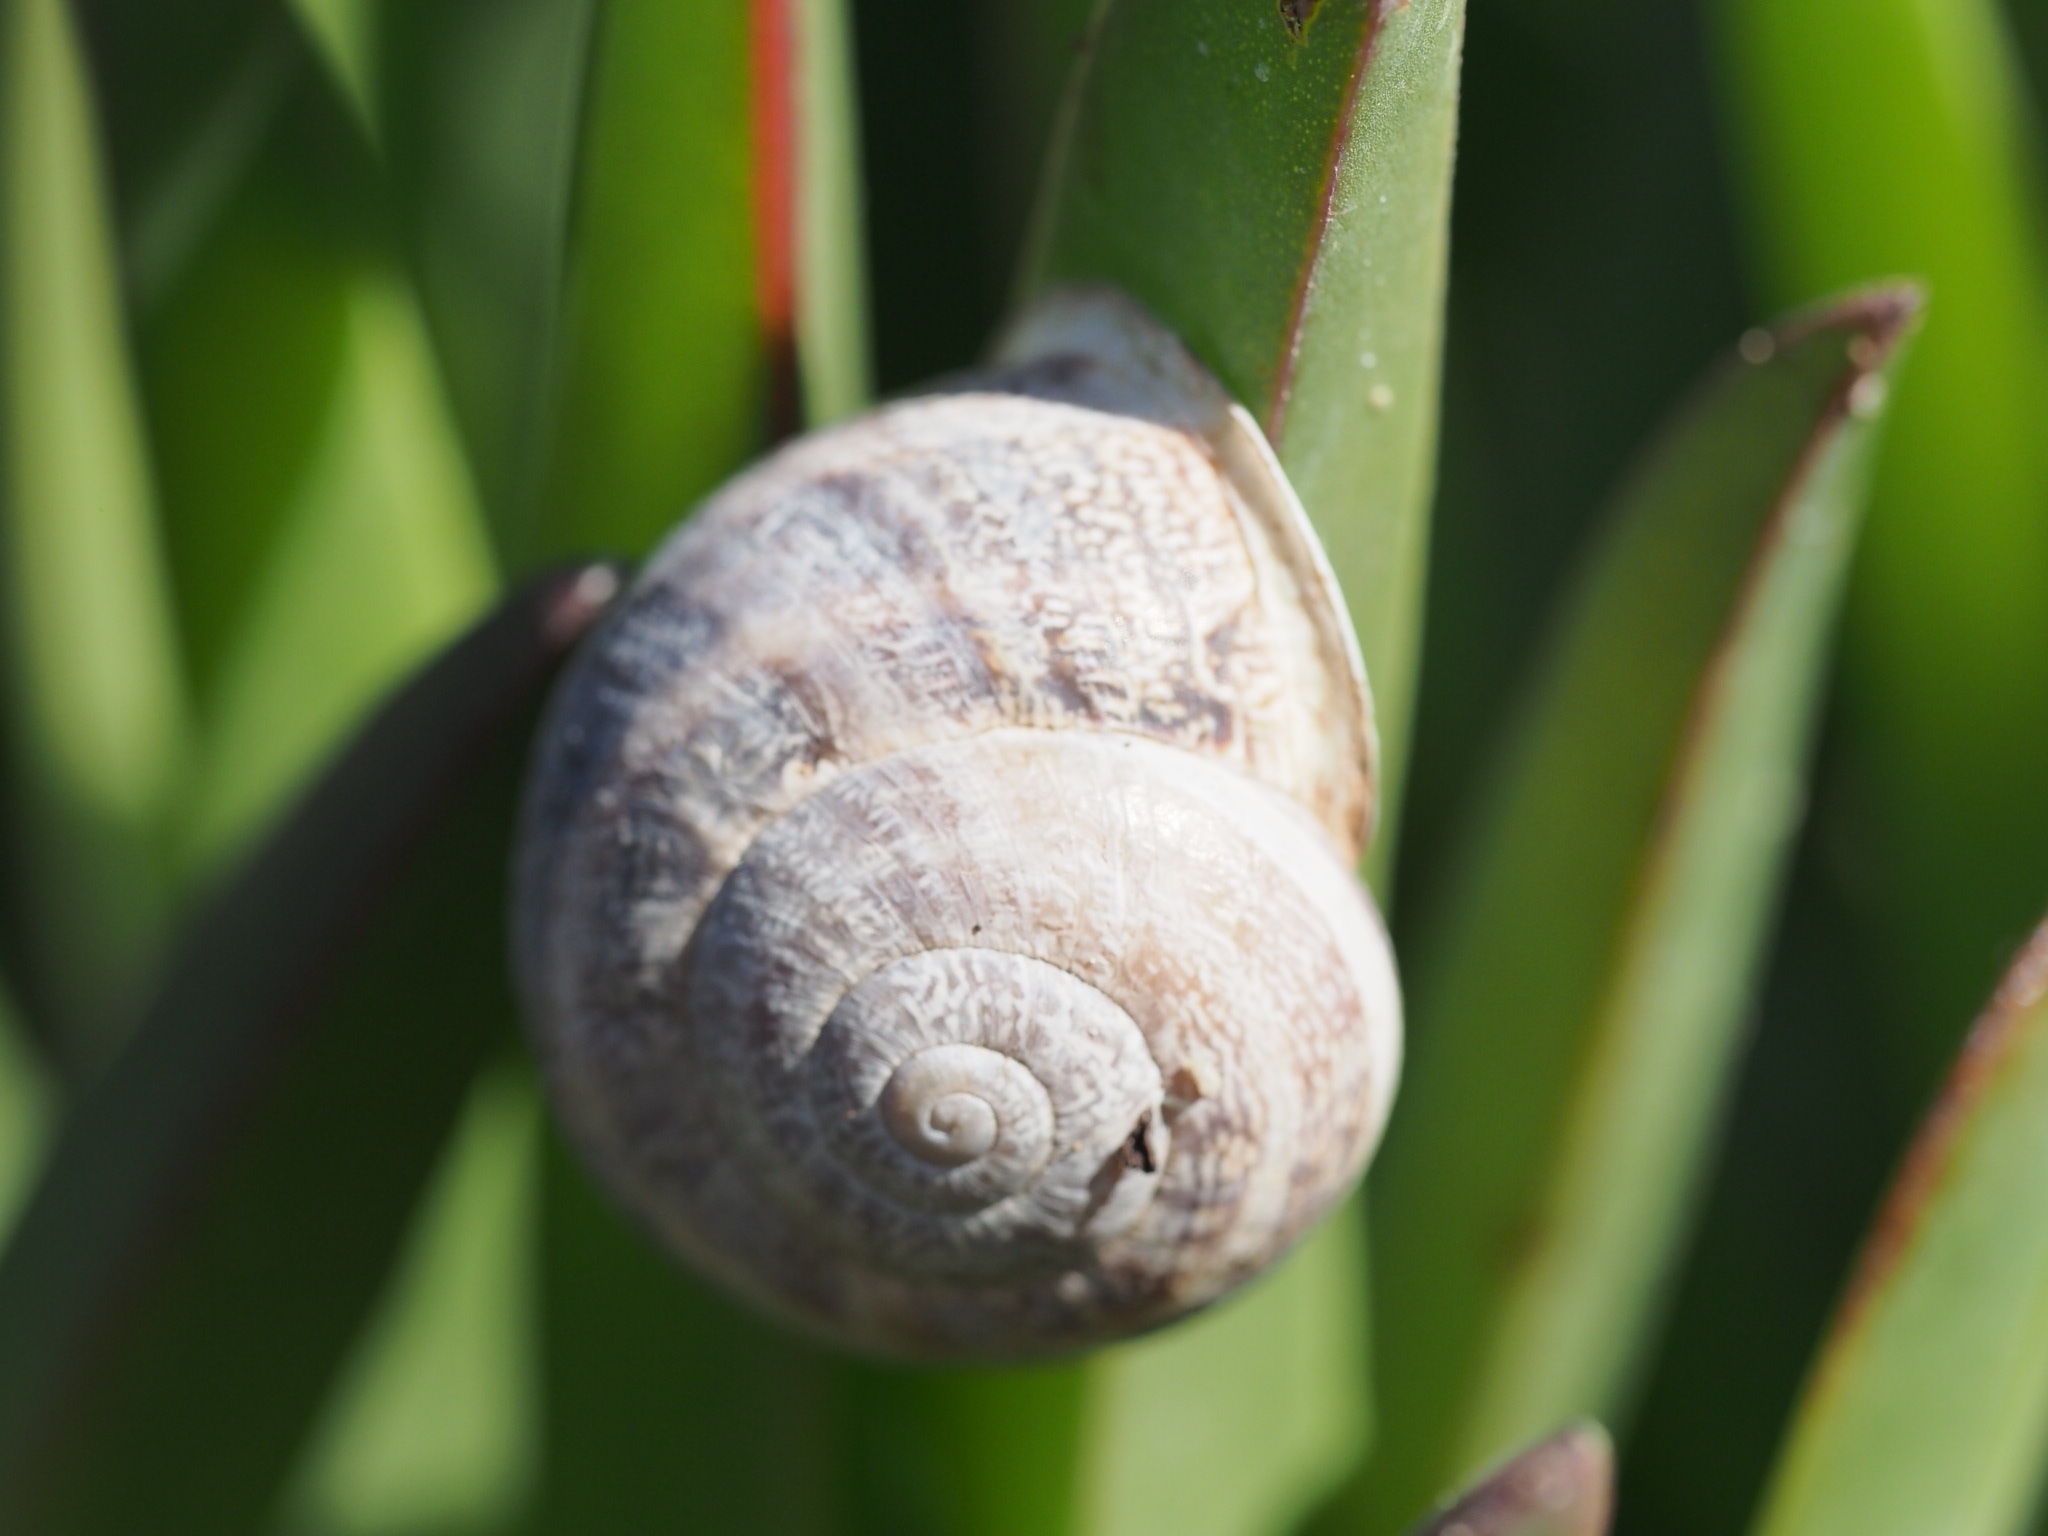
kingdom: Animalia
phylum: Mollusca
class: Gastropoda
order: Stylommatophora
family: Helicidae
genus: Eobania
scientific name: Eobania vermiculata
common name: Chocolateband snail
